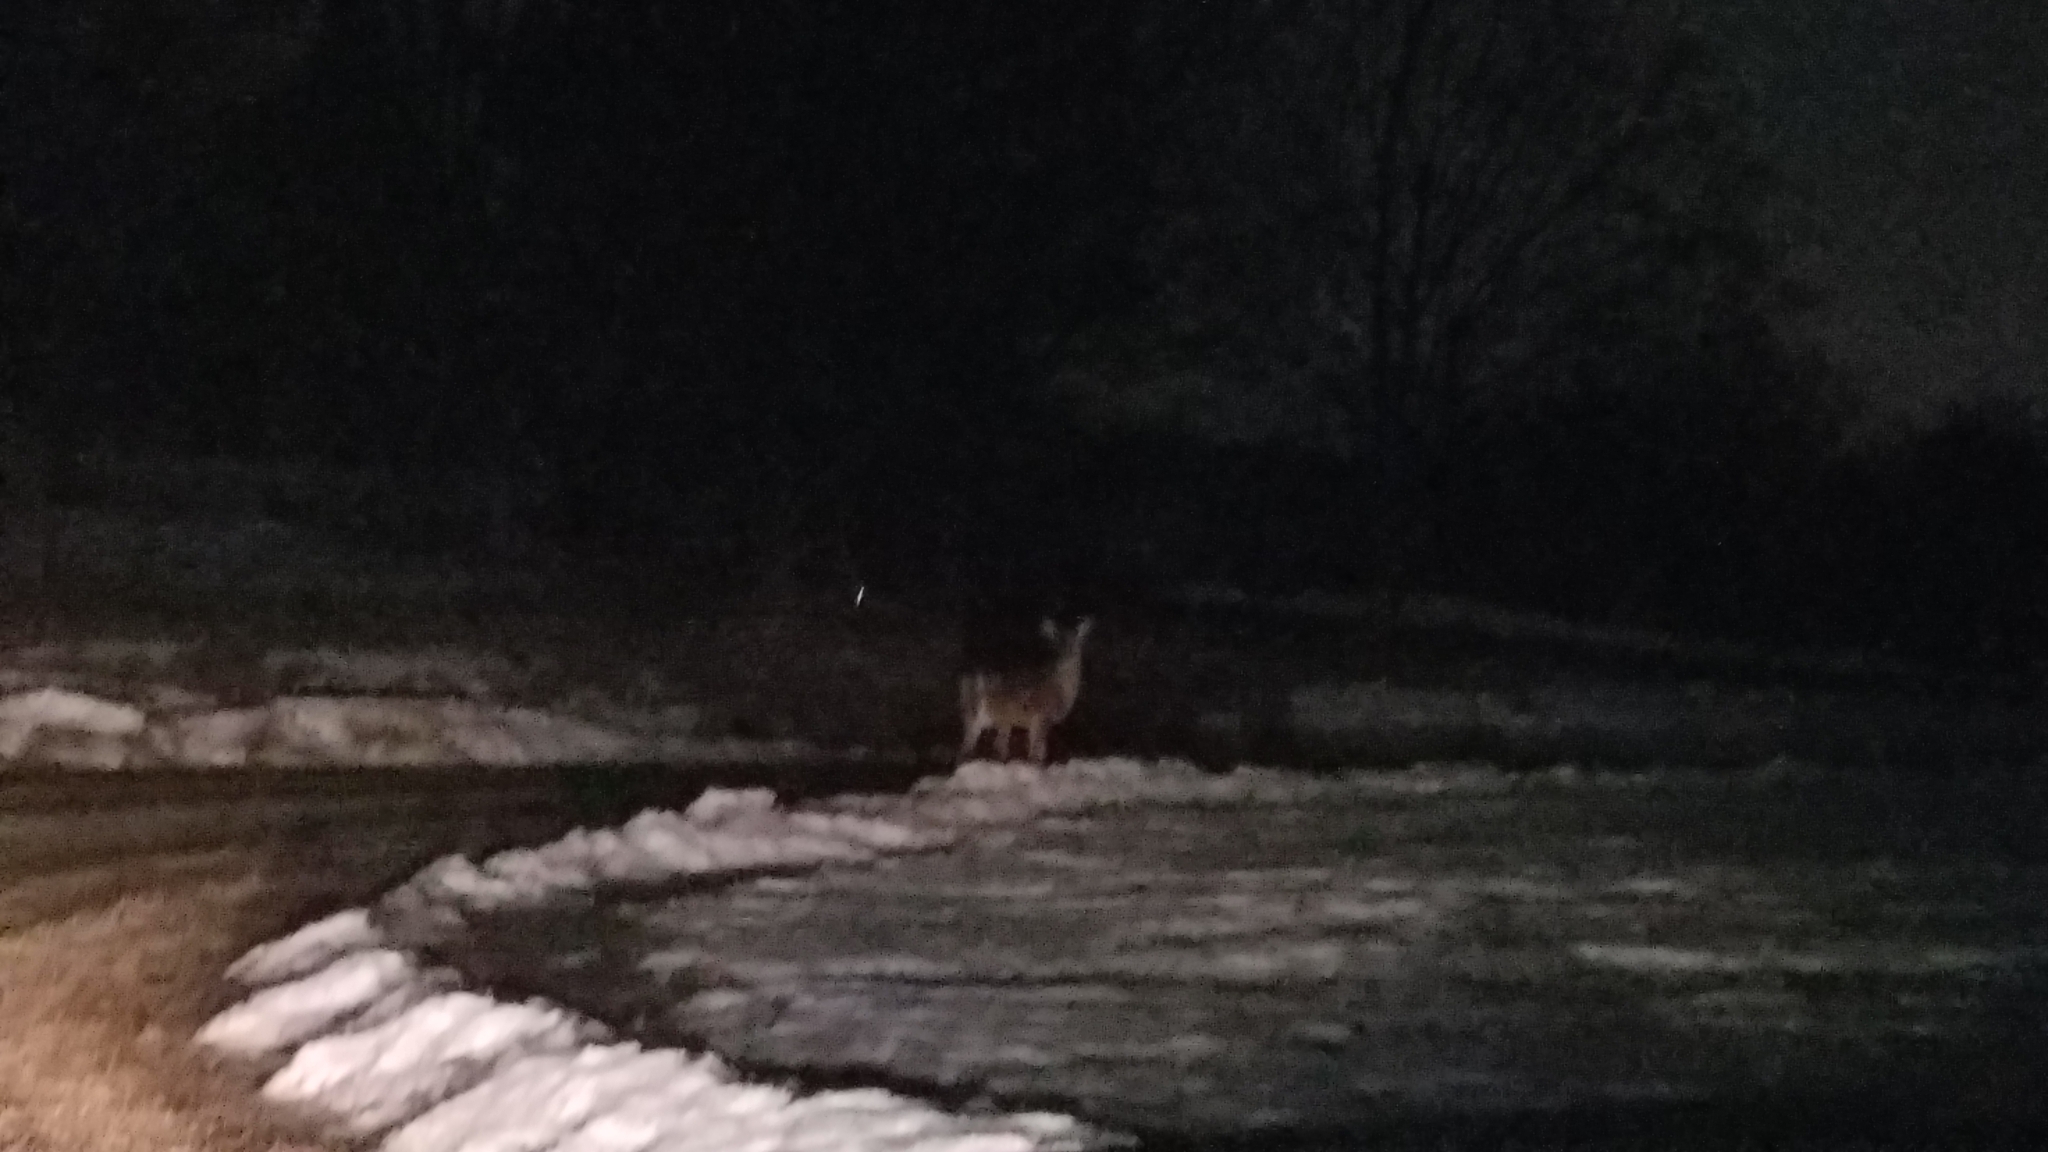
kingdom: Animalia
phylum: Chordata
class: Mammalia
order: Artiodactyla
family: Cervidae
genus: Odocoileus
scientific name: Odocoileus virginianus
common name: White-tailed deer
